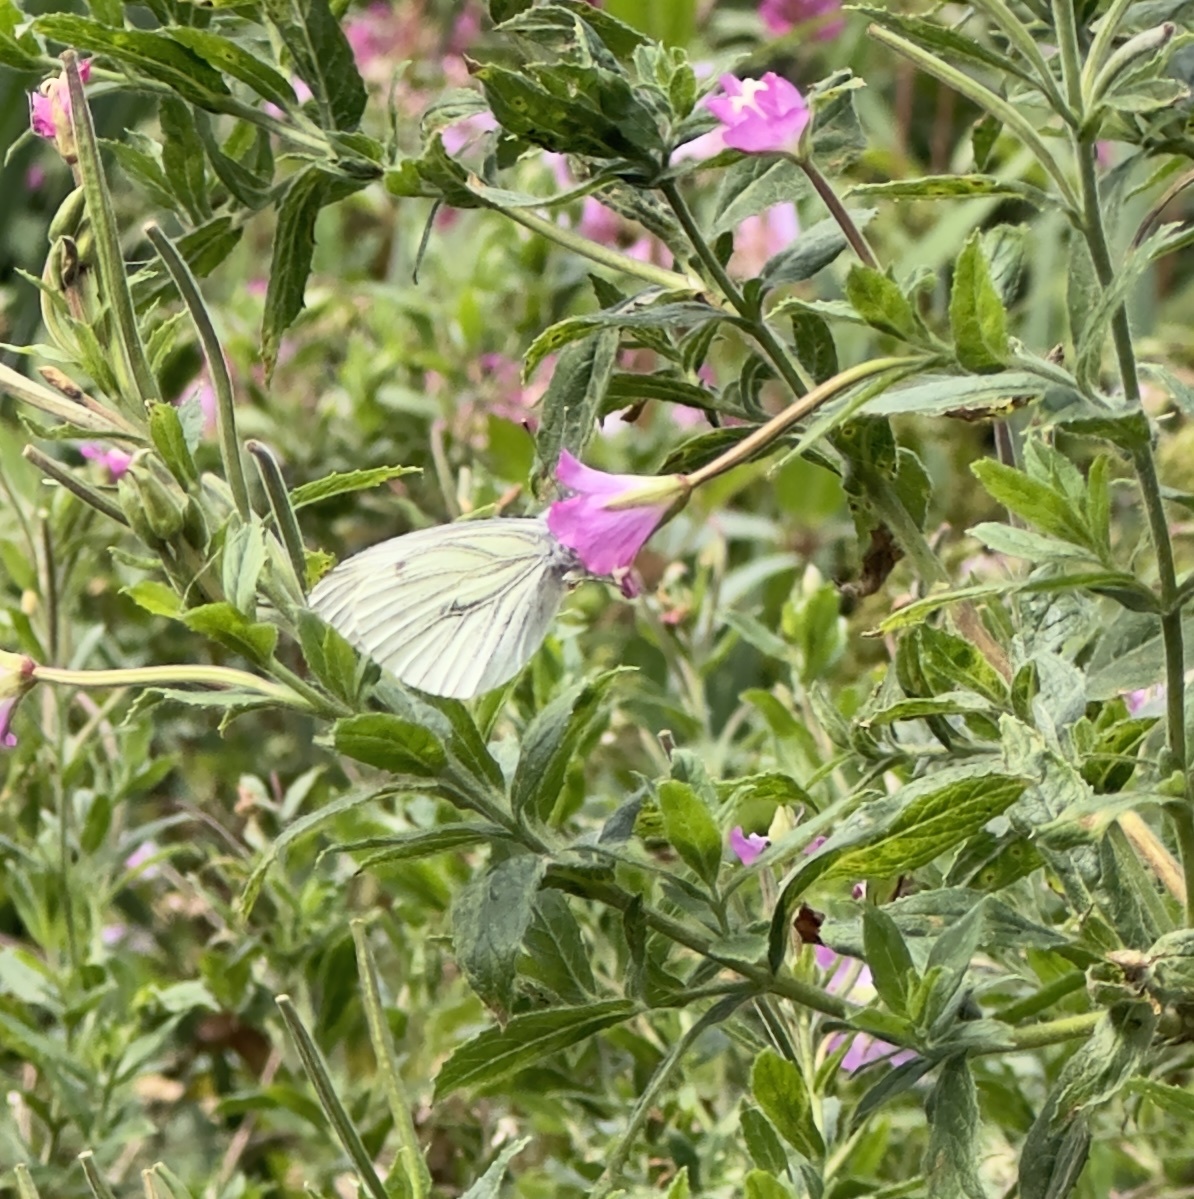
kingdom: Animalia
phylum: Arthropoda
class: Insecta
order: Lepidoptera
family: Pieridae
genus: Pieris
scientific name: Pieris napi
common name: Green-veined white
